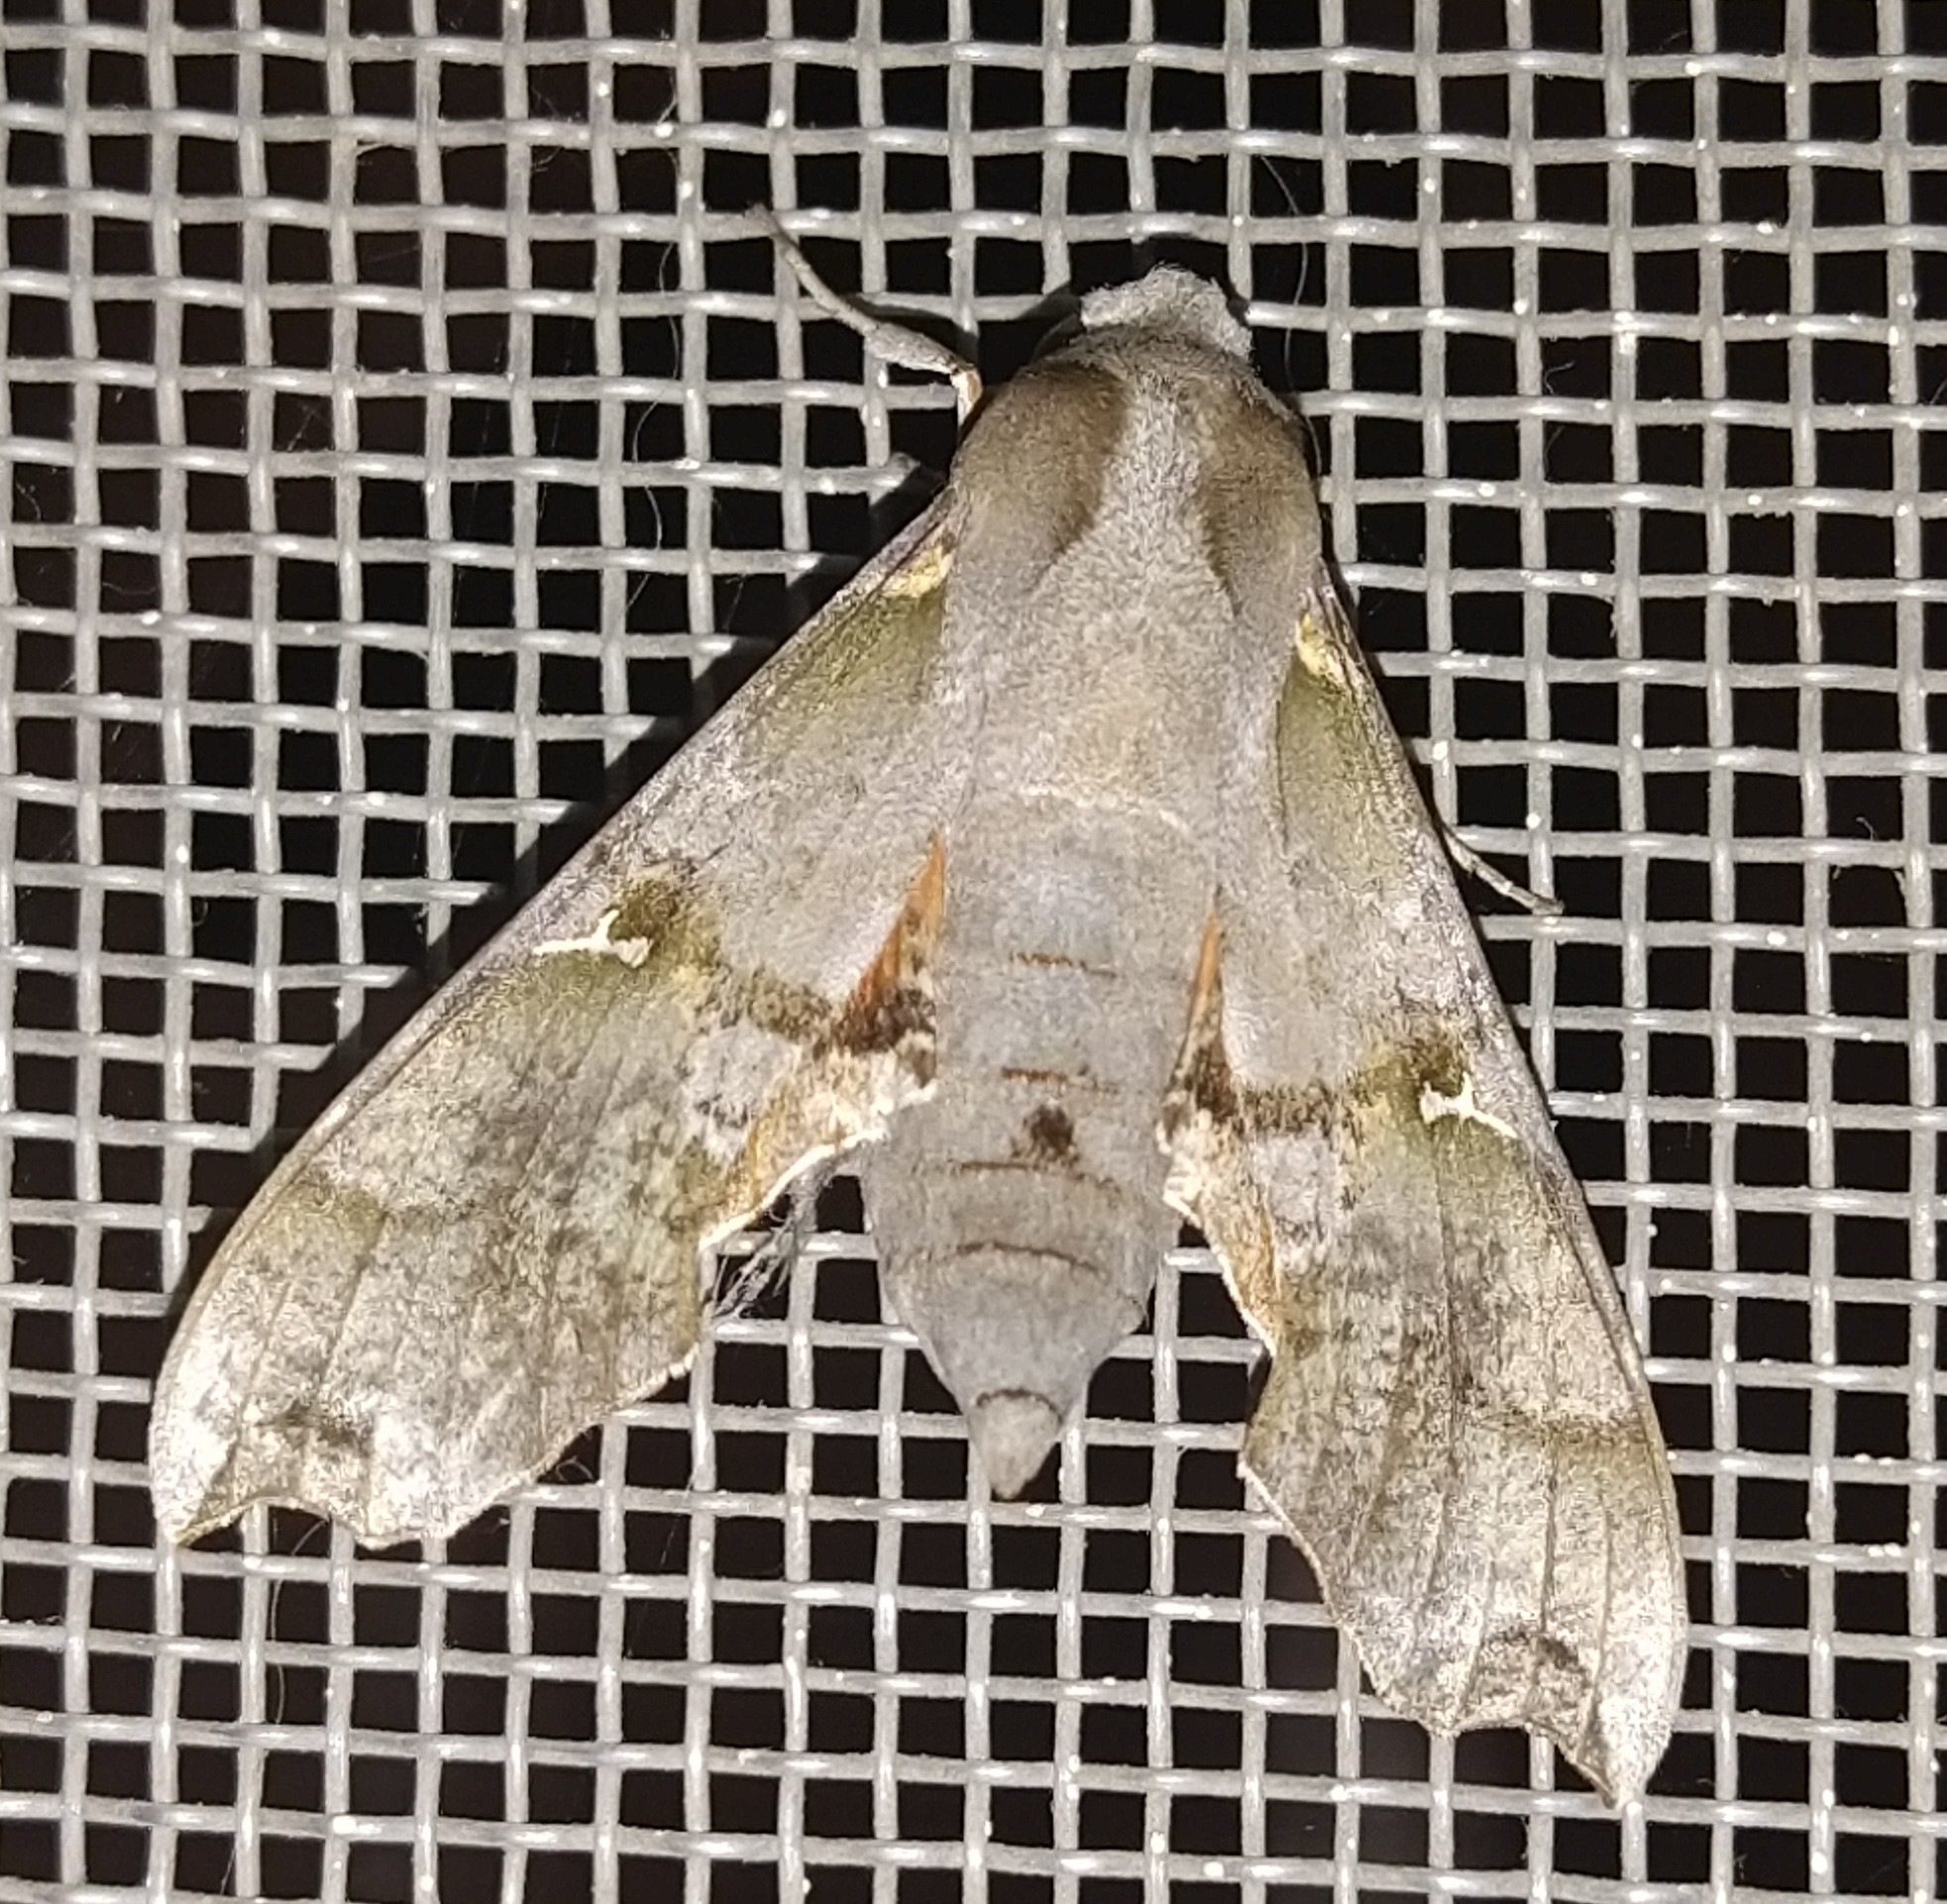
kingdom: Animalia
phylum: Arthropoda
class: Insecta
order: Lepidoptera
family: Sphingidae
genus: Callionima
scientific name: Callionima grisescens
